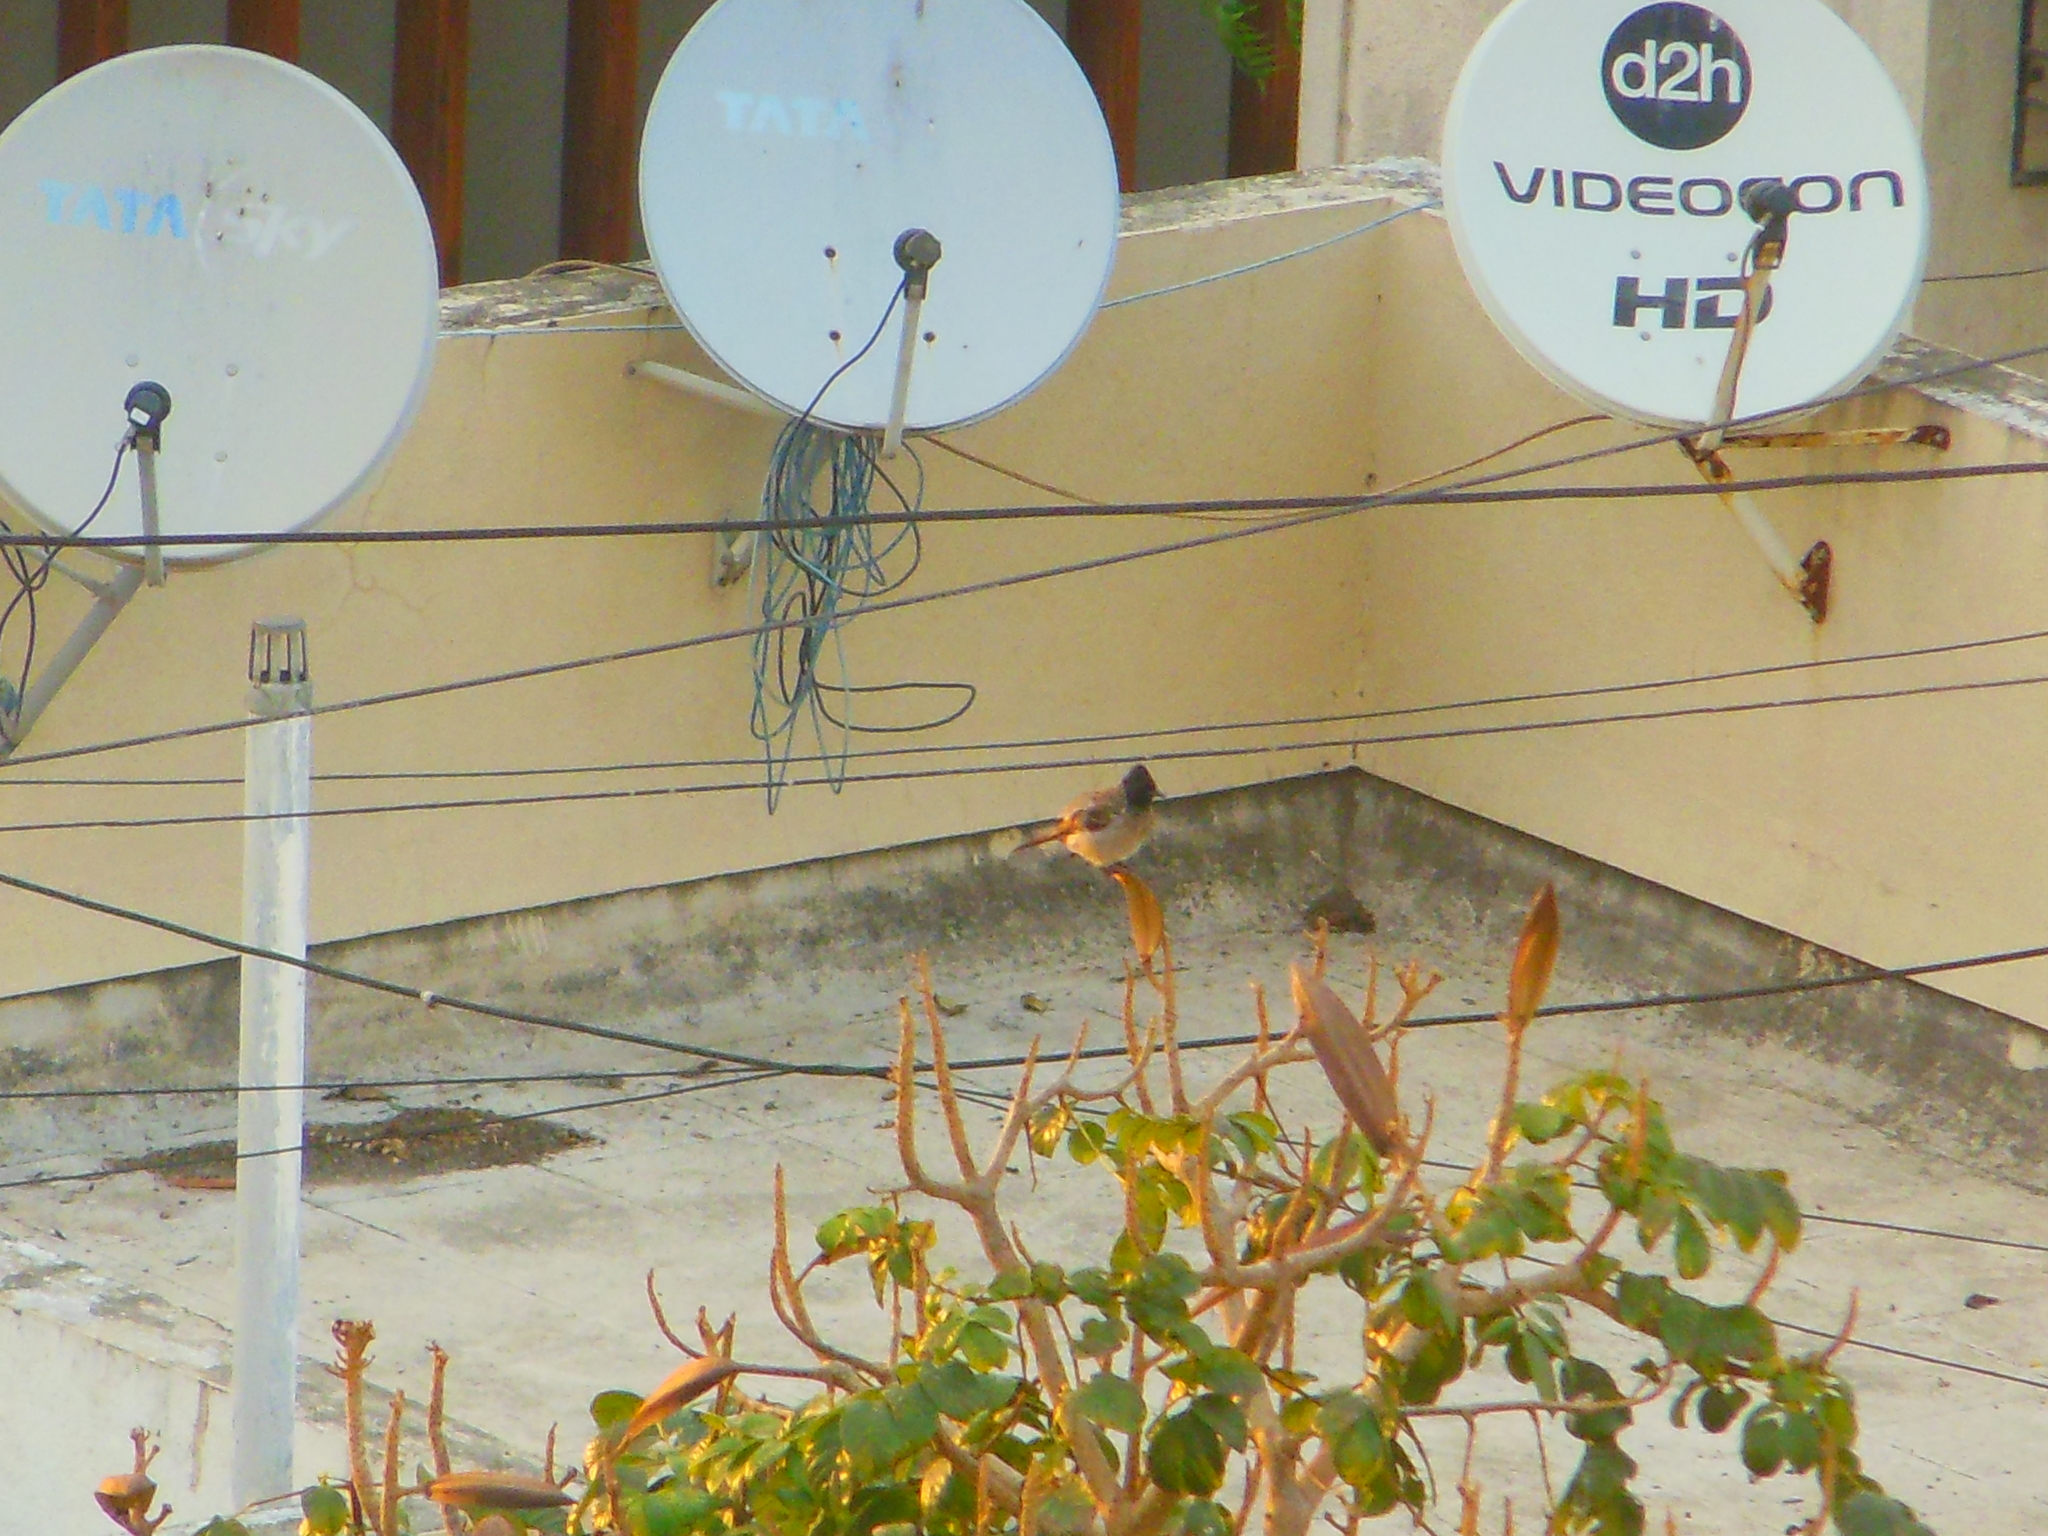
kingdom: Animalia
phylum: Chordata
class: Aves
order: Passeriformes
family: Pycnonotidae
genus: Pycnonotus
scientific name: Pycnonotus cafer
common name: Red-vented bulbul
